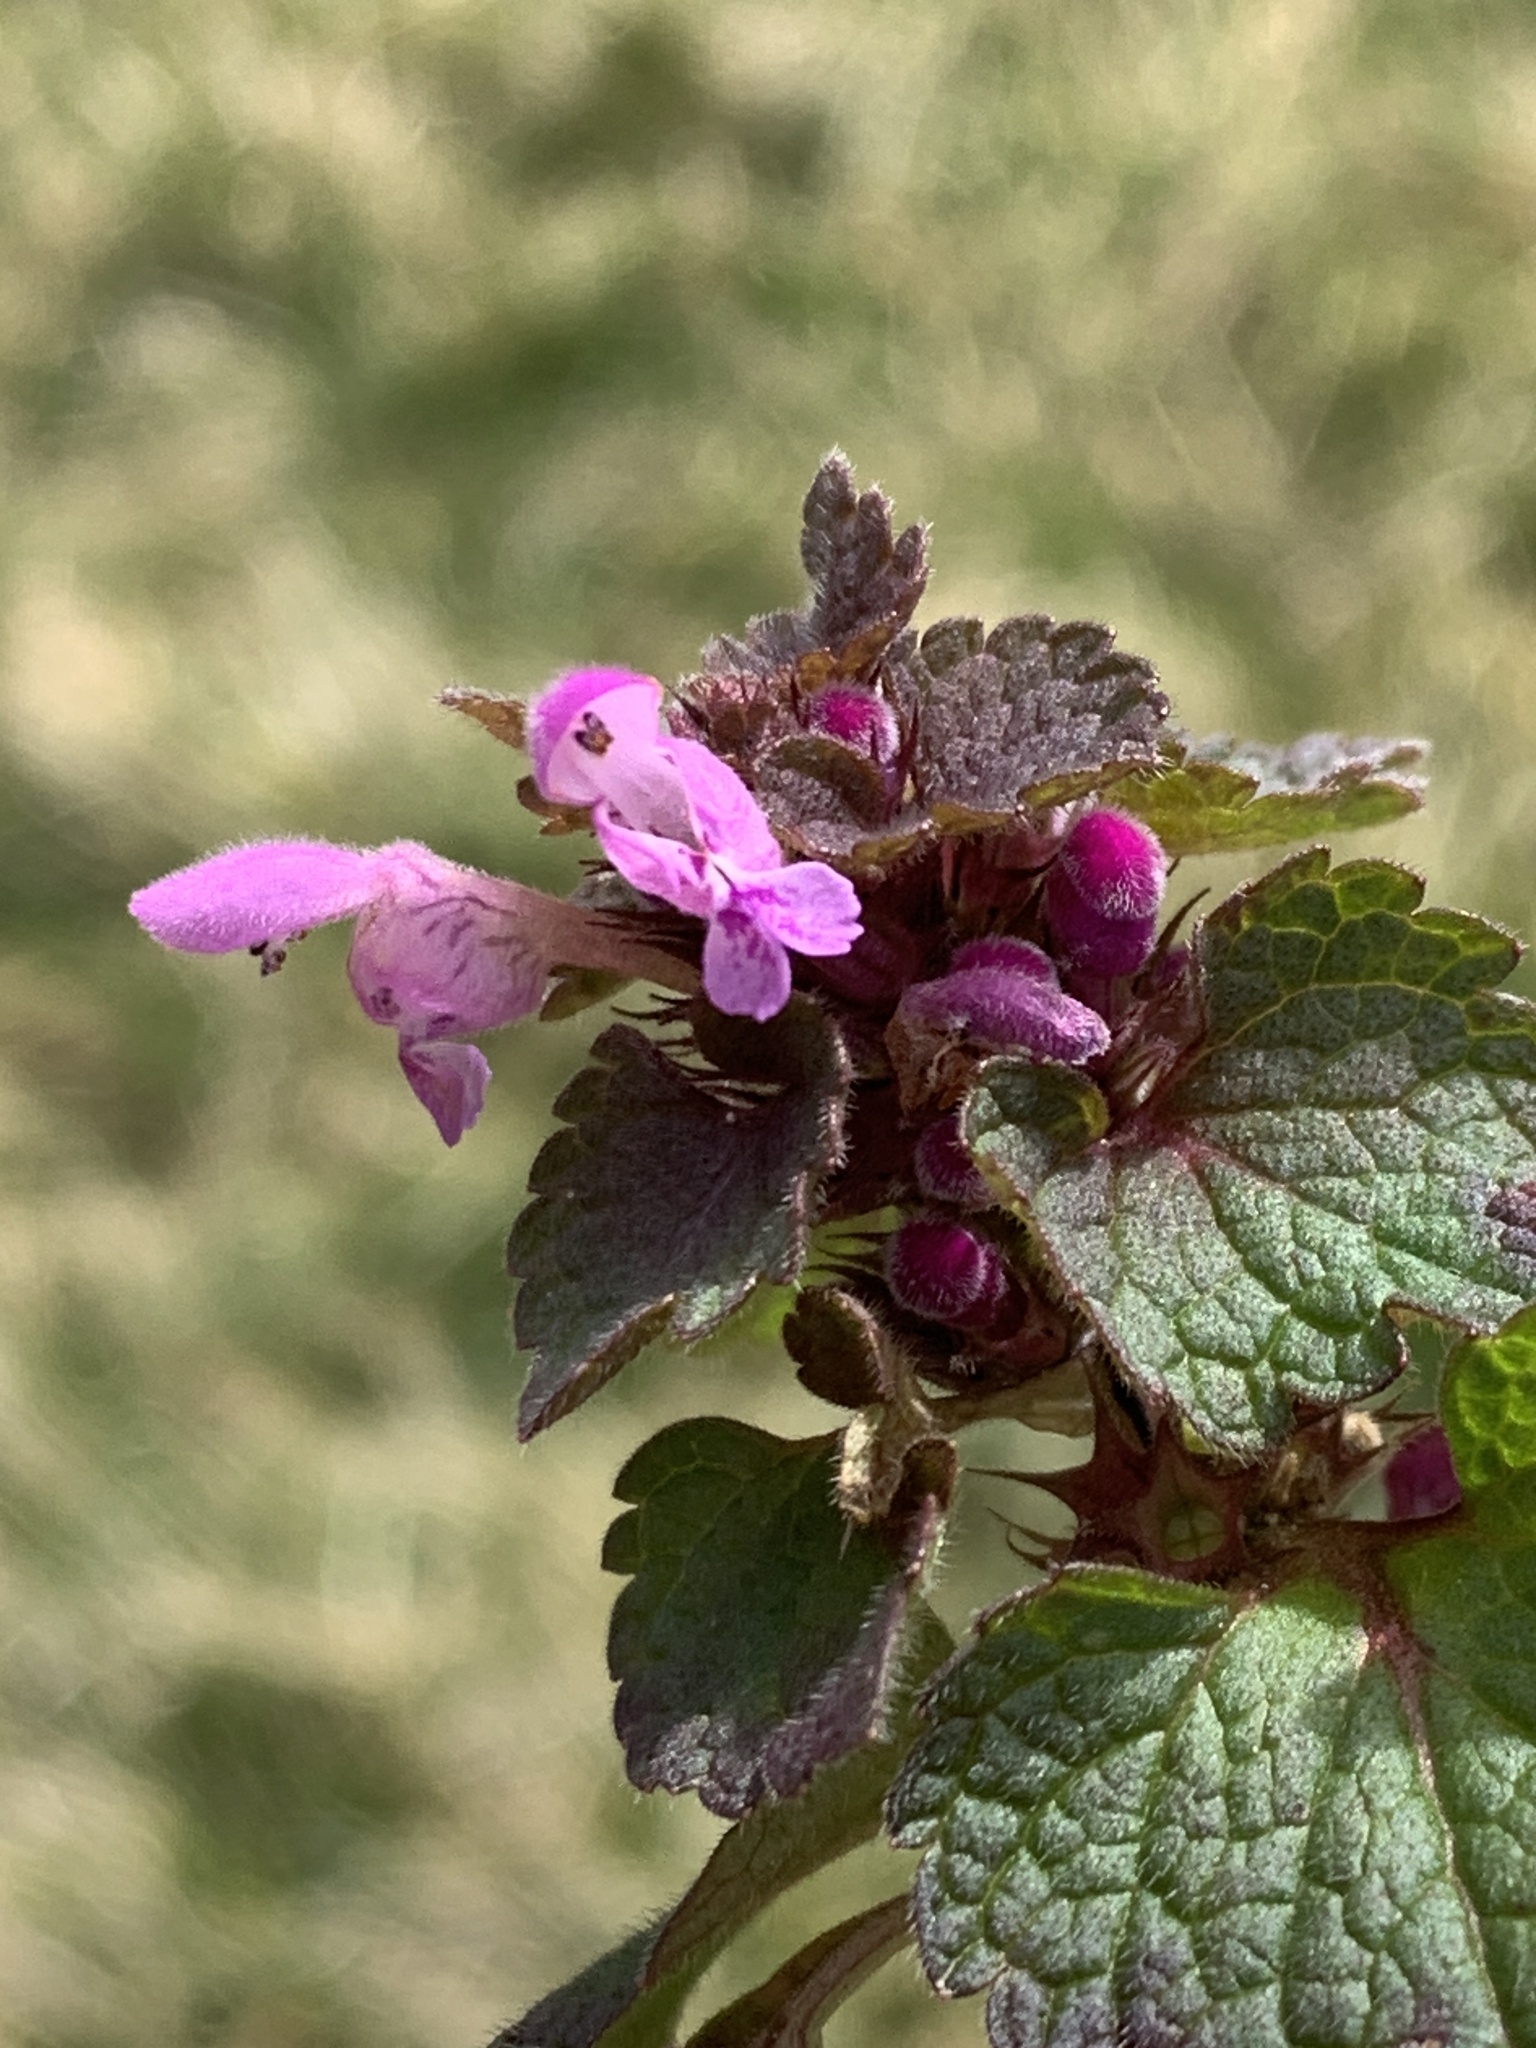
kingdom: Plantae
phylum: Tracheophyta
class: Magnoliopsida
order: Lamiales
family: Lamiaceae
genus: Lamium
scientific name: Lamium purpureum
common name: Red dead-nettle
